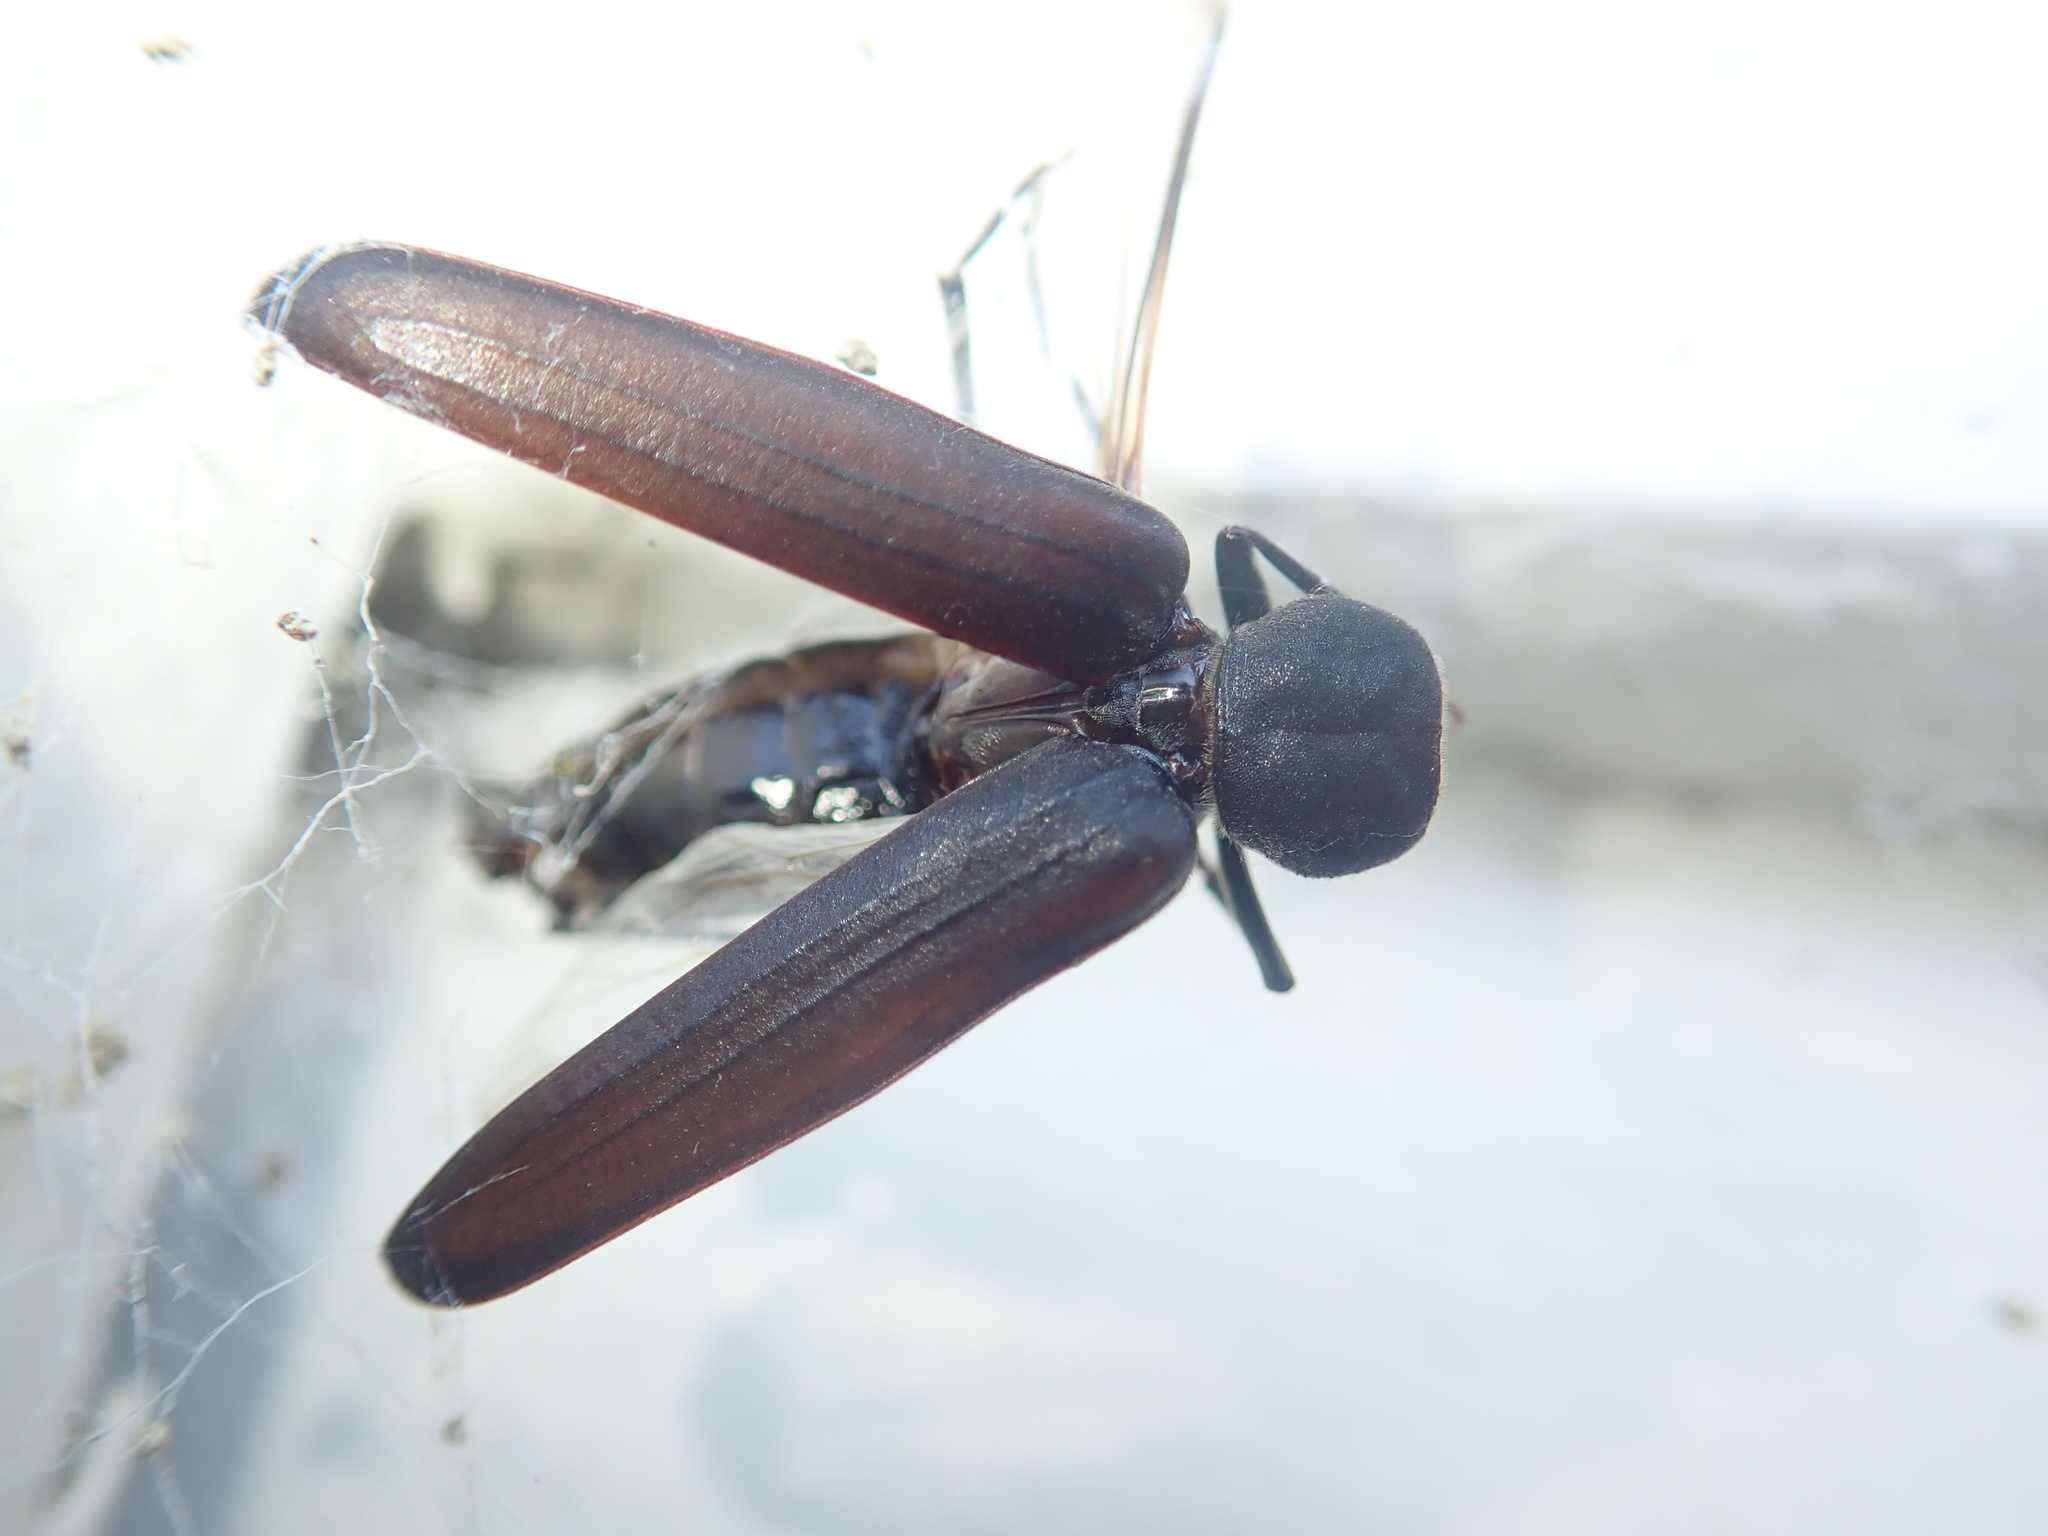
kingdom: Animalia
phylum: Arthropoda
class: Insecta
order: Coleoptera
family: Cerambycidae
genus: Arhopalus
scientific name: Arhopalus ferus
